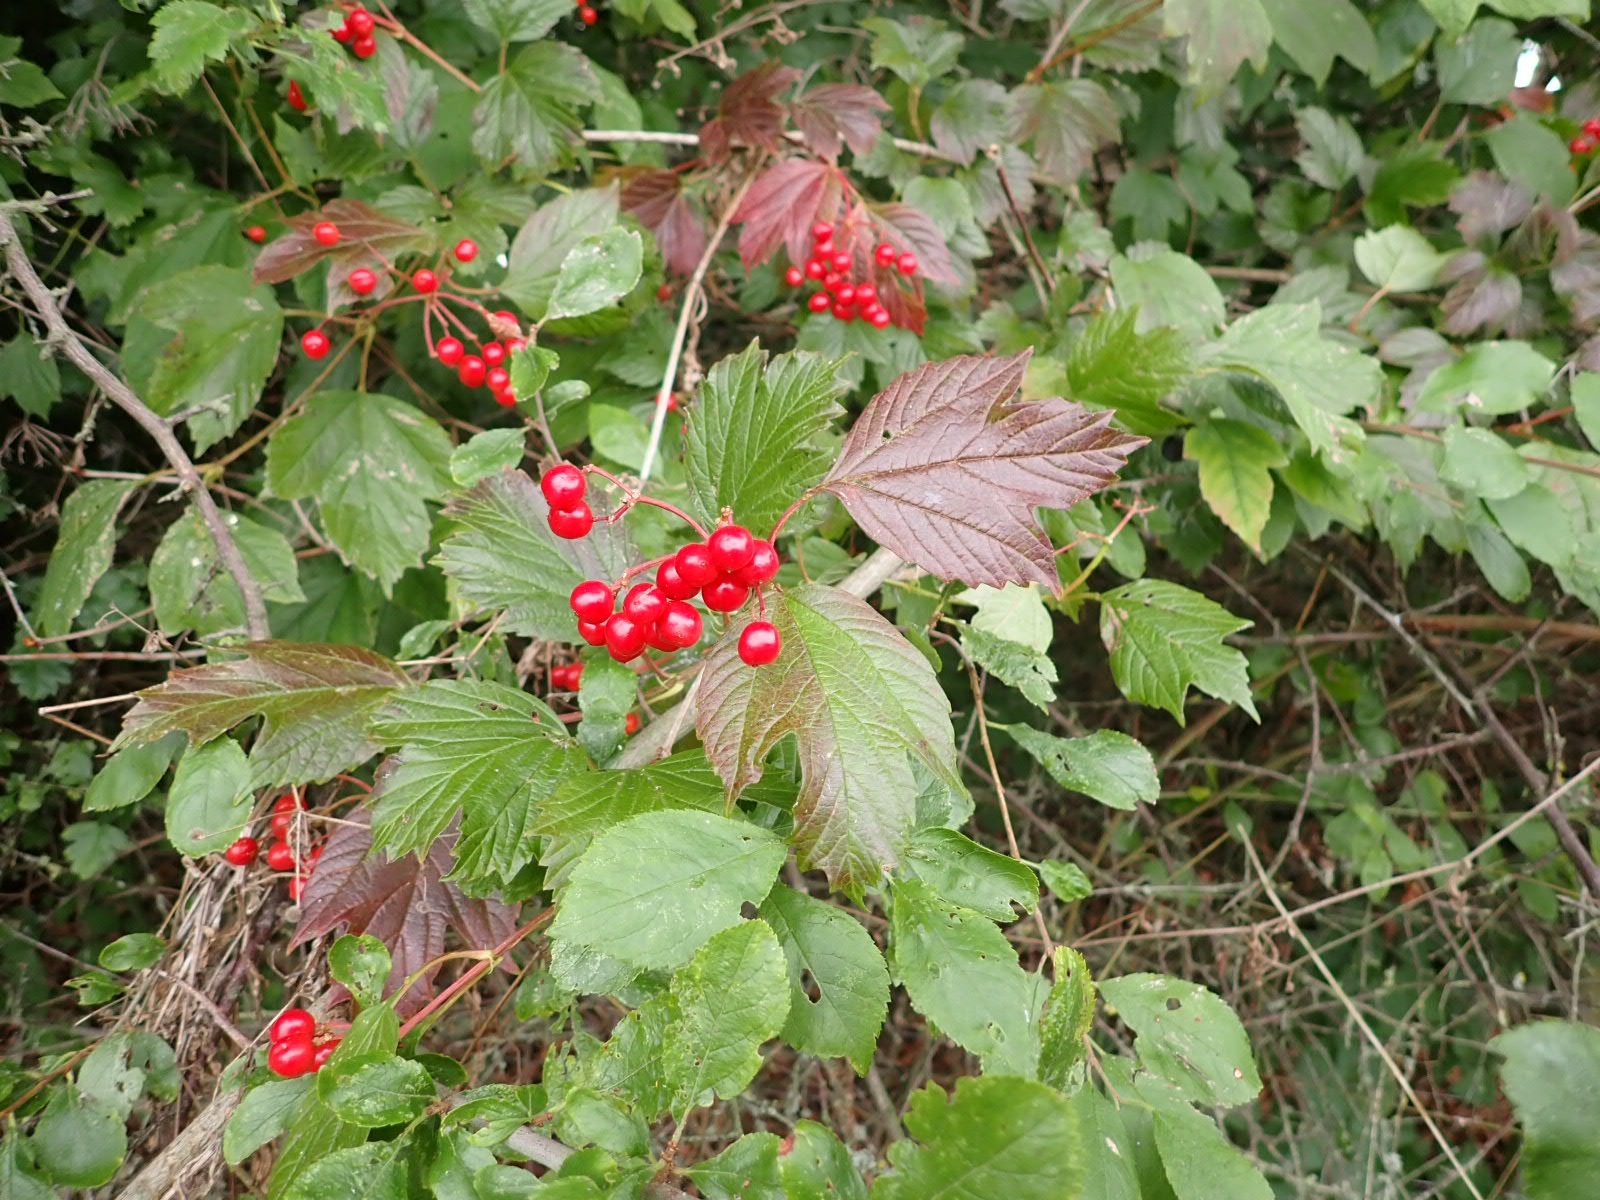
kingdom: Plantae
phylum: Tracheophyta
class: Magnoliopsida
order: Dipsacales
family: Viburnaceae
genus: Viburnum
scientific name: Viburnum opulus
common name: Guelder-rose
